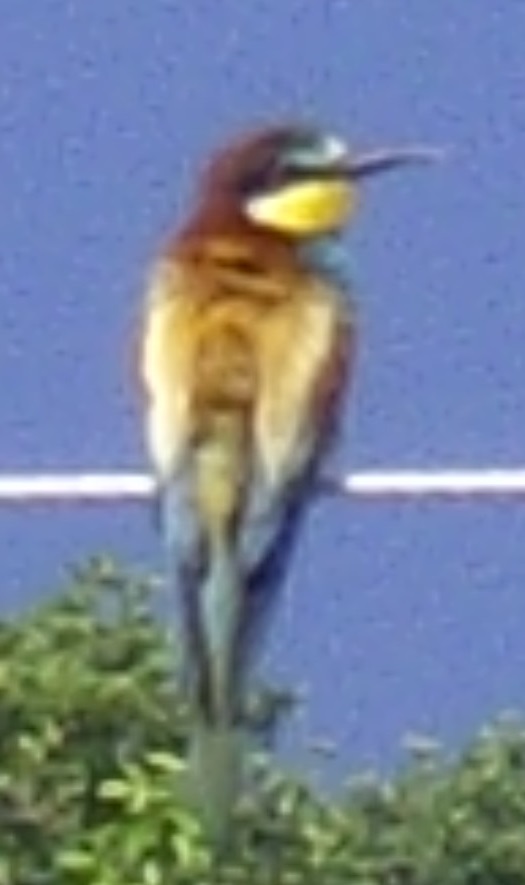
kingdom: Animalia
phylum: Chordata
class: Aves
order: Coraciiformes
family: Meropidae
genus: Merops
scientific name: Merops apiaster
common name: European bee-eater
